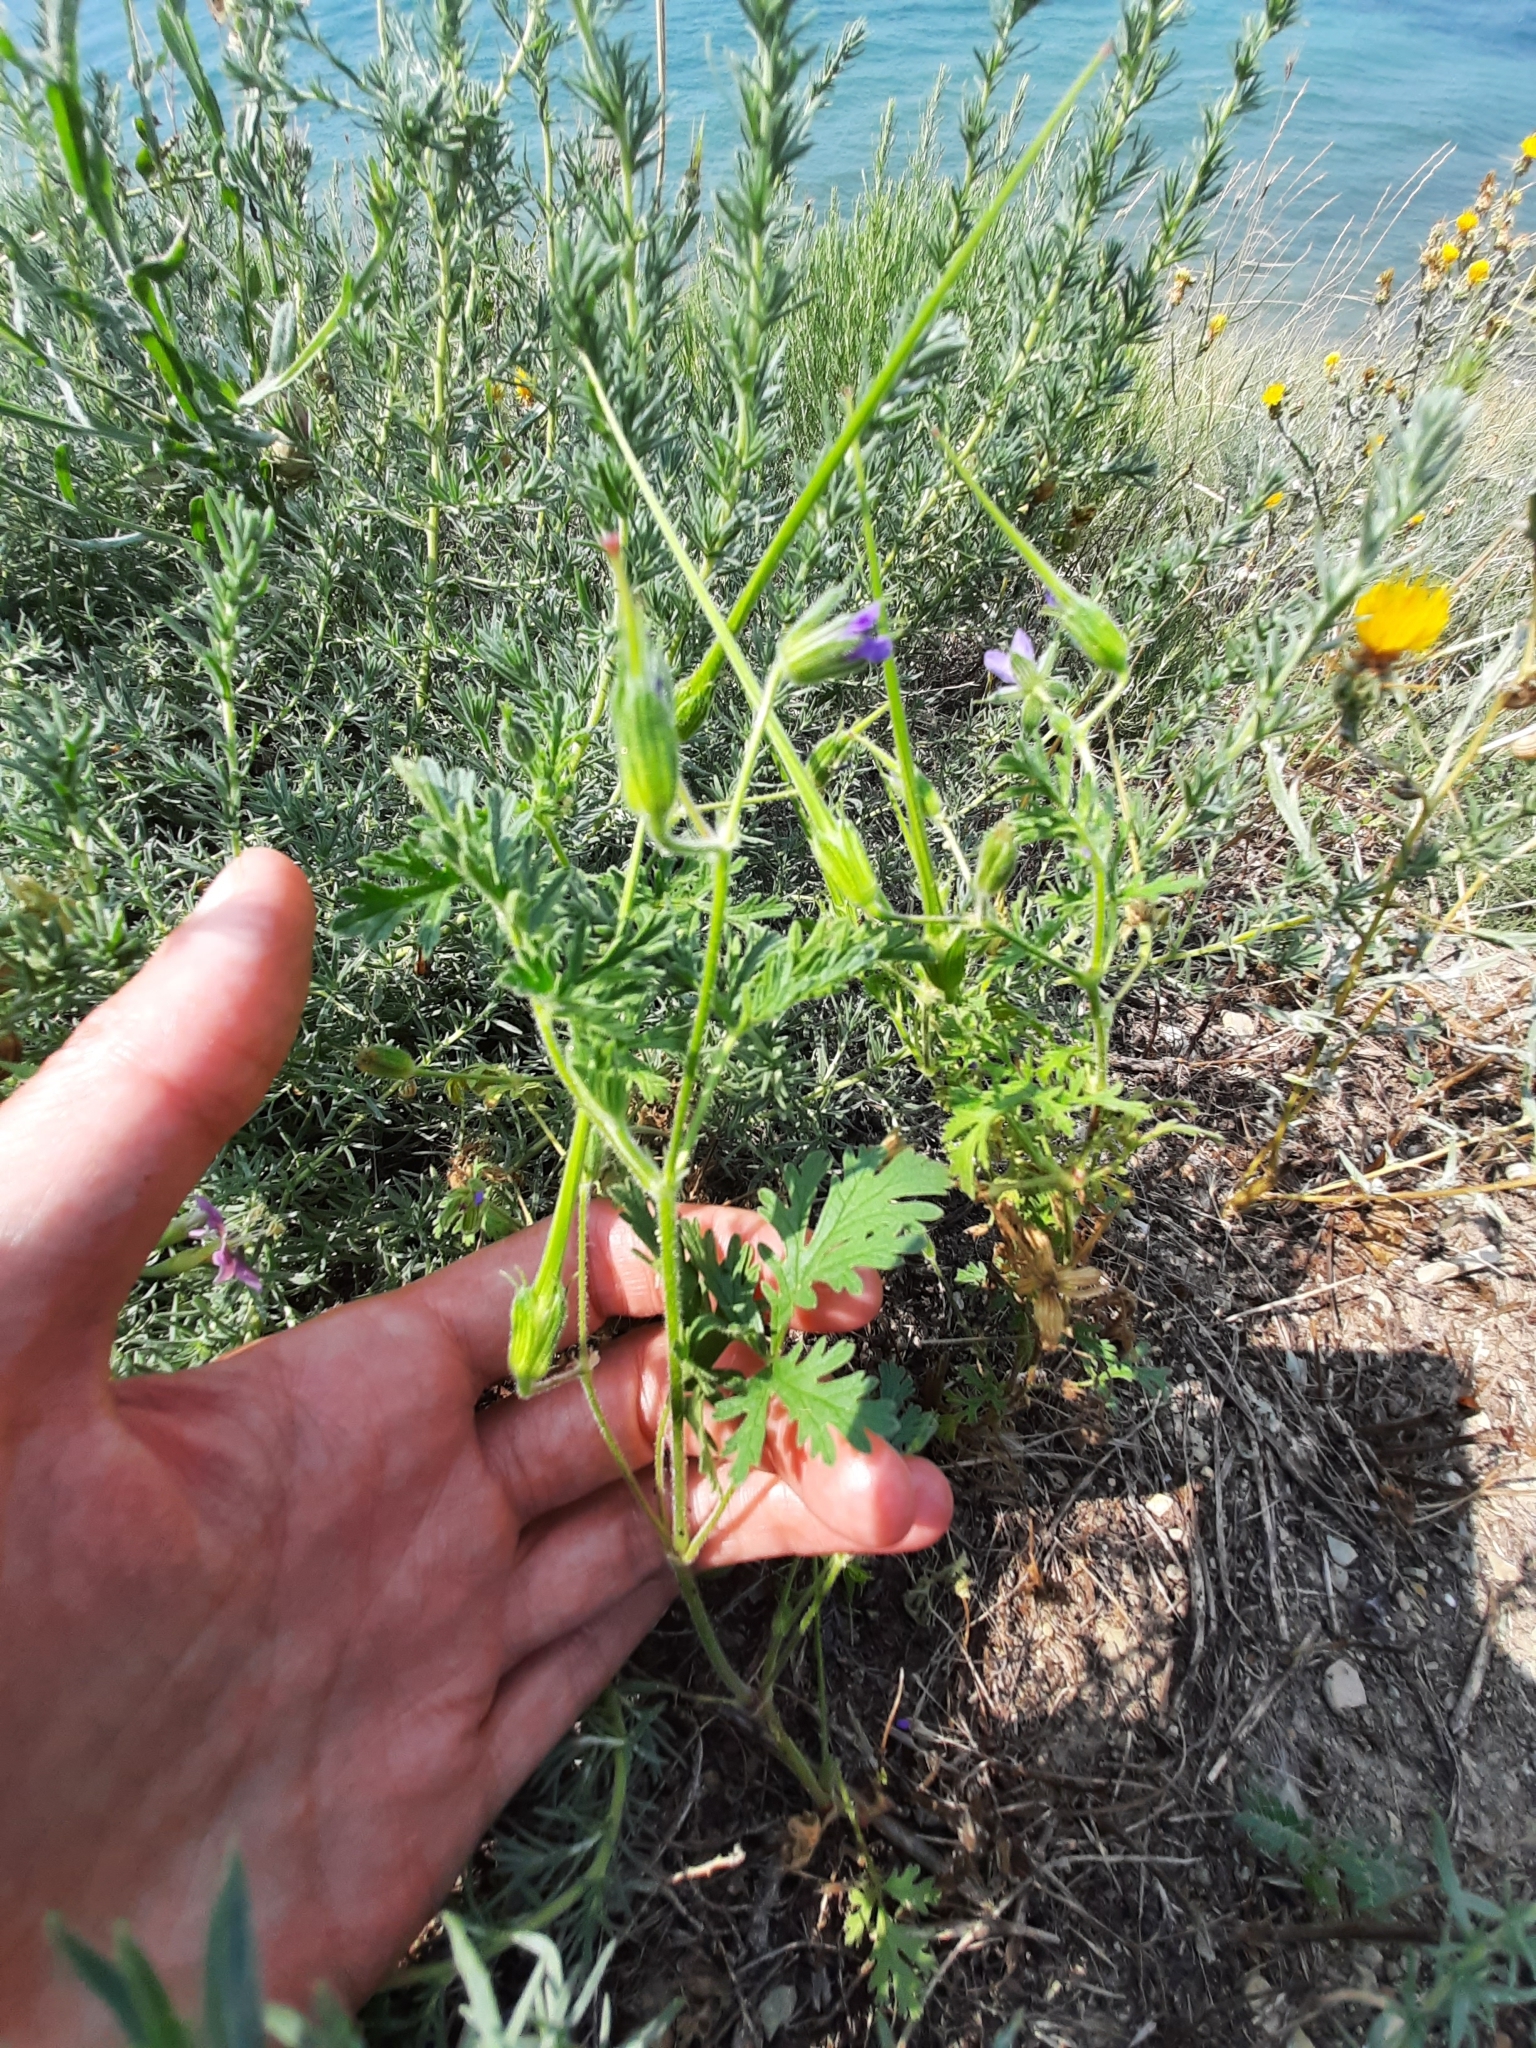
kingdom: Plantae
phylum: Tracheophyta
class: Magnoliopsida
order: Geraniales
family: Geraniaceae
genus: Erodium
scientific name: Erodium cicutarium
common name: Common stork's-bill
